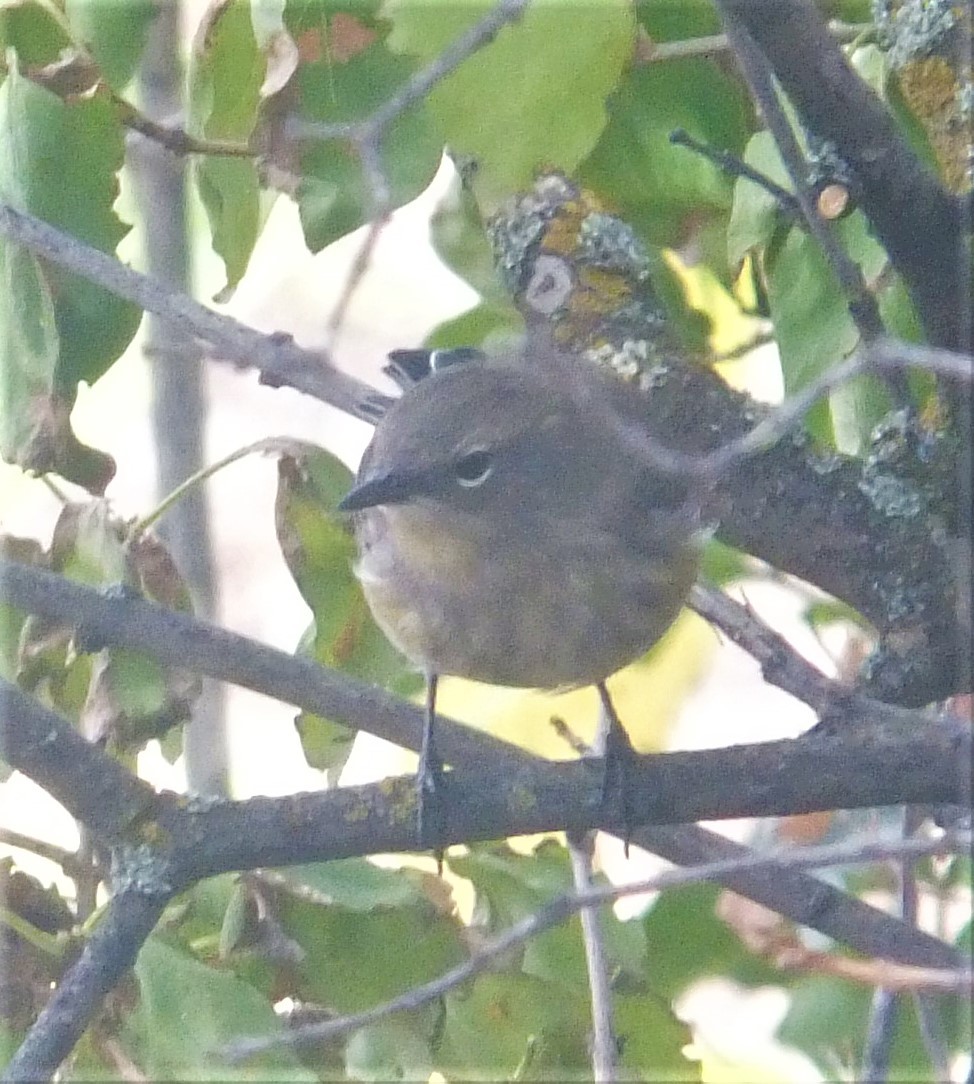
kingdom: Animalia
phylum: Chordata
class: Aves
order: Passeriformes
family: Parulidae
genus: Setophaga
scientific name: Setophaga coronata
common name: Myrtle warbler
